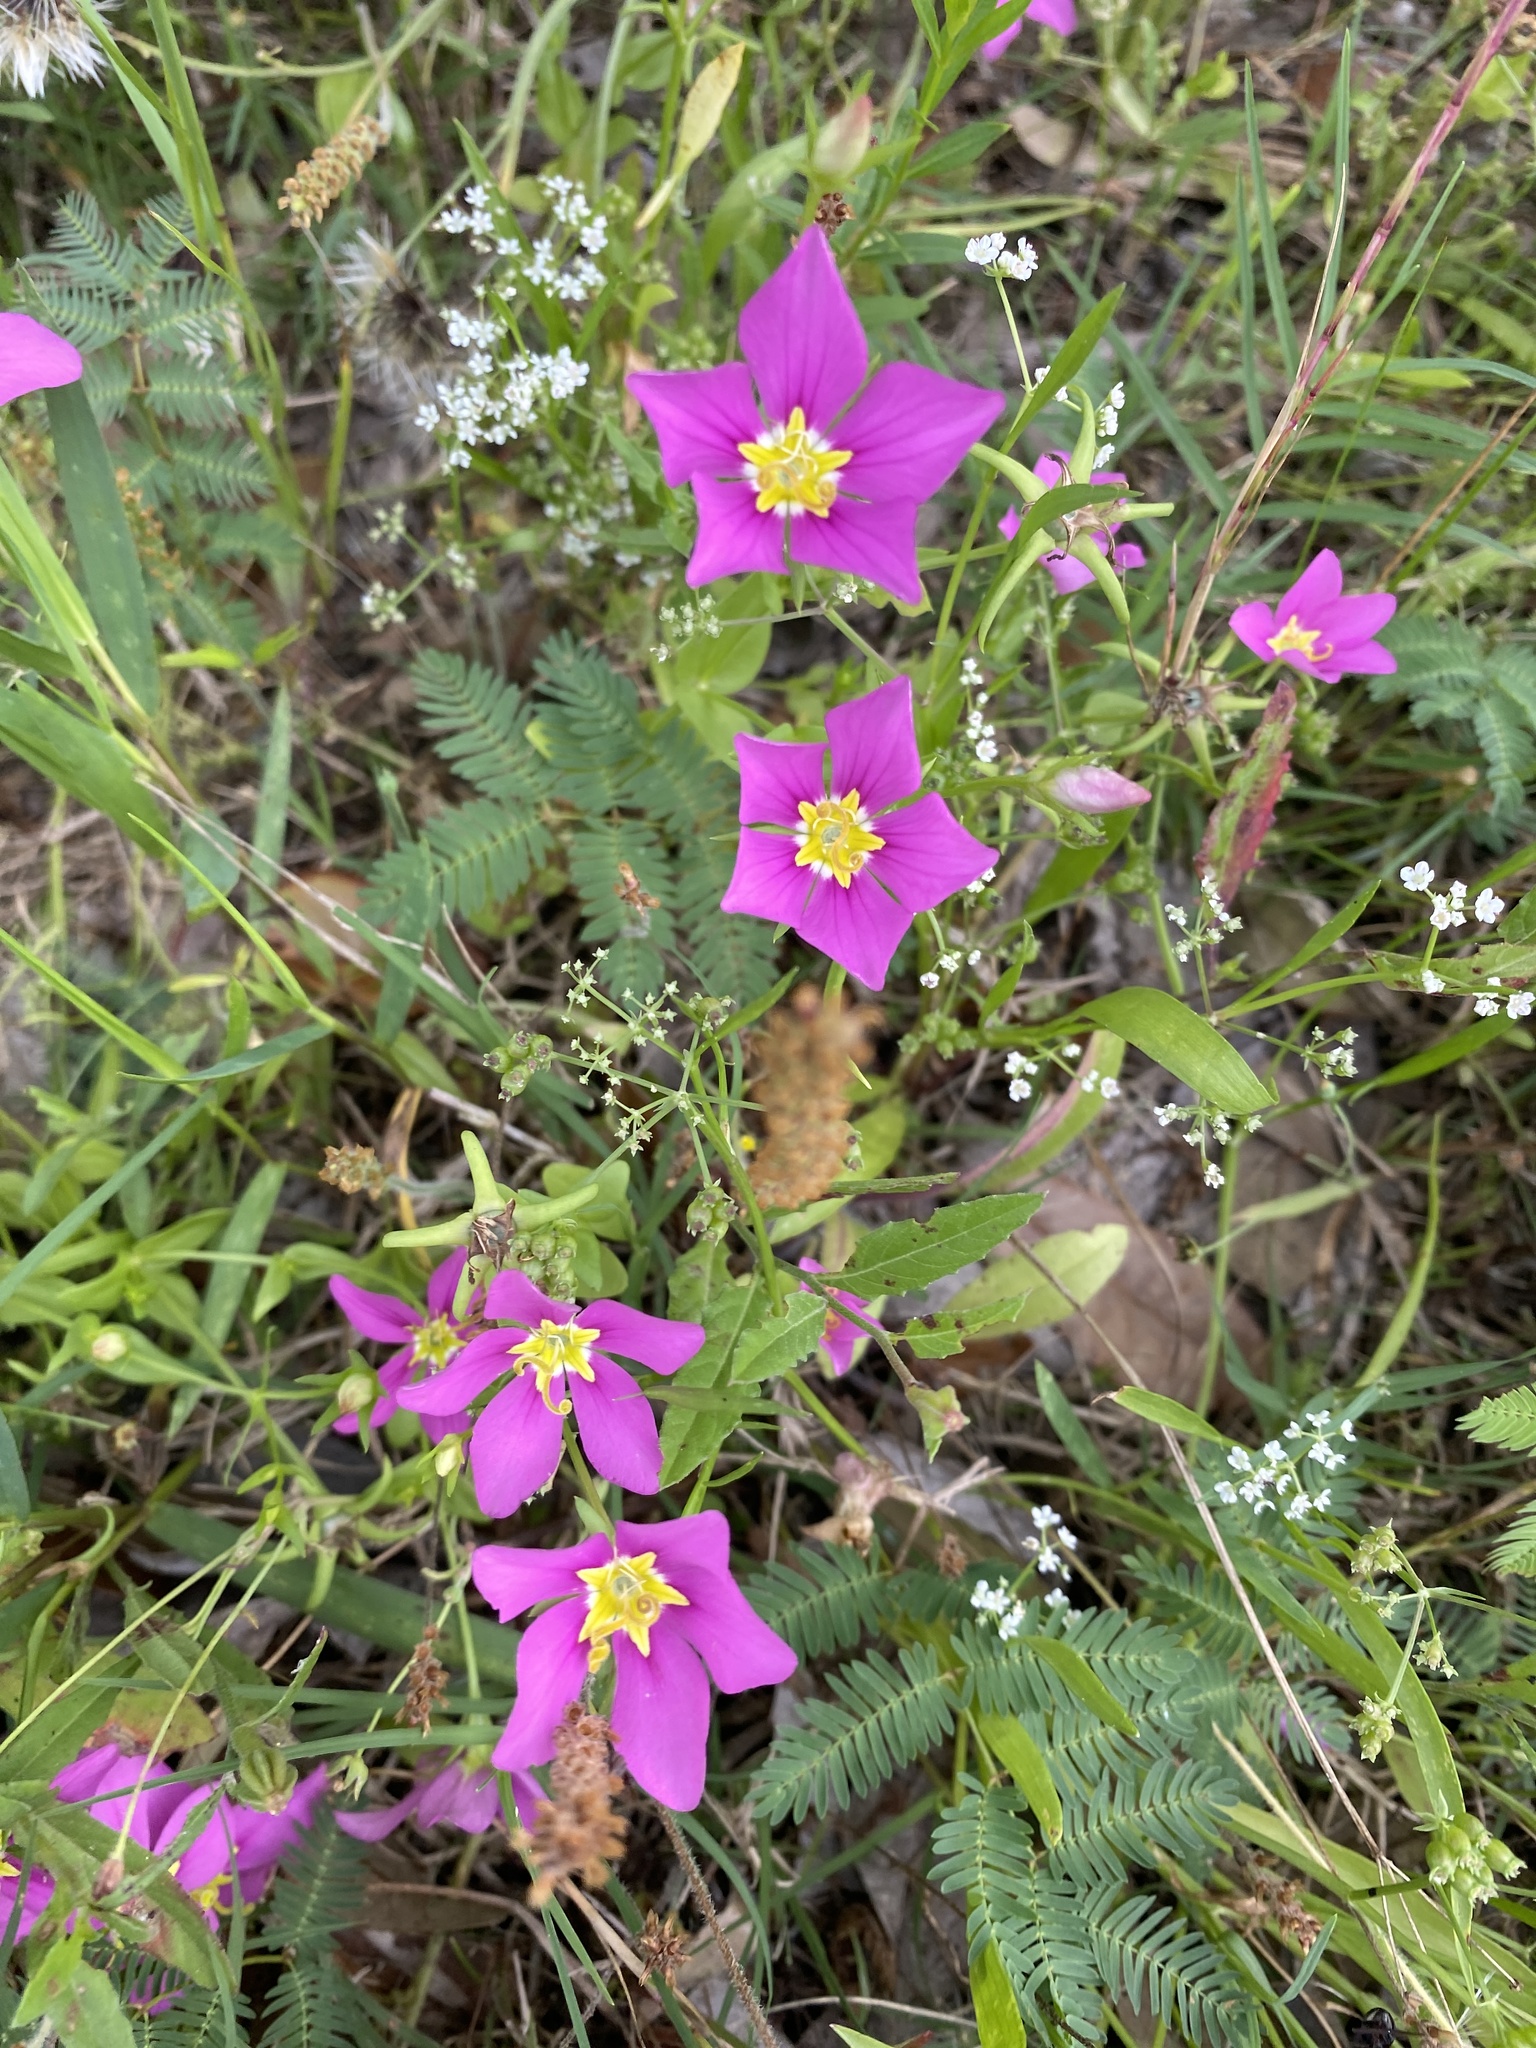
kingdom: Plantae
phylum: Tracheophyta
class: Magnoliopsida
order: Gentianales
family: Gentianaceae
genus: Sabatia
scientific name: Sabatia campestris
